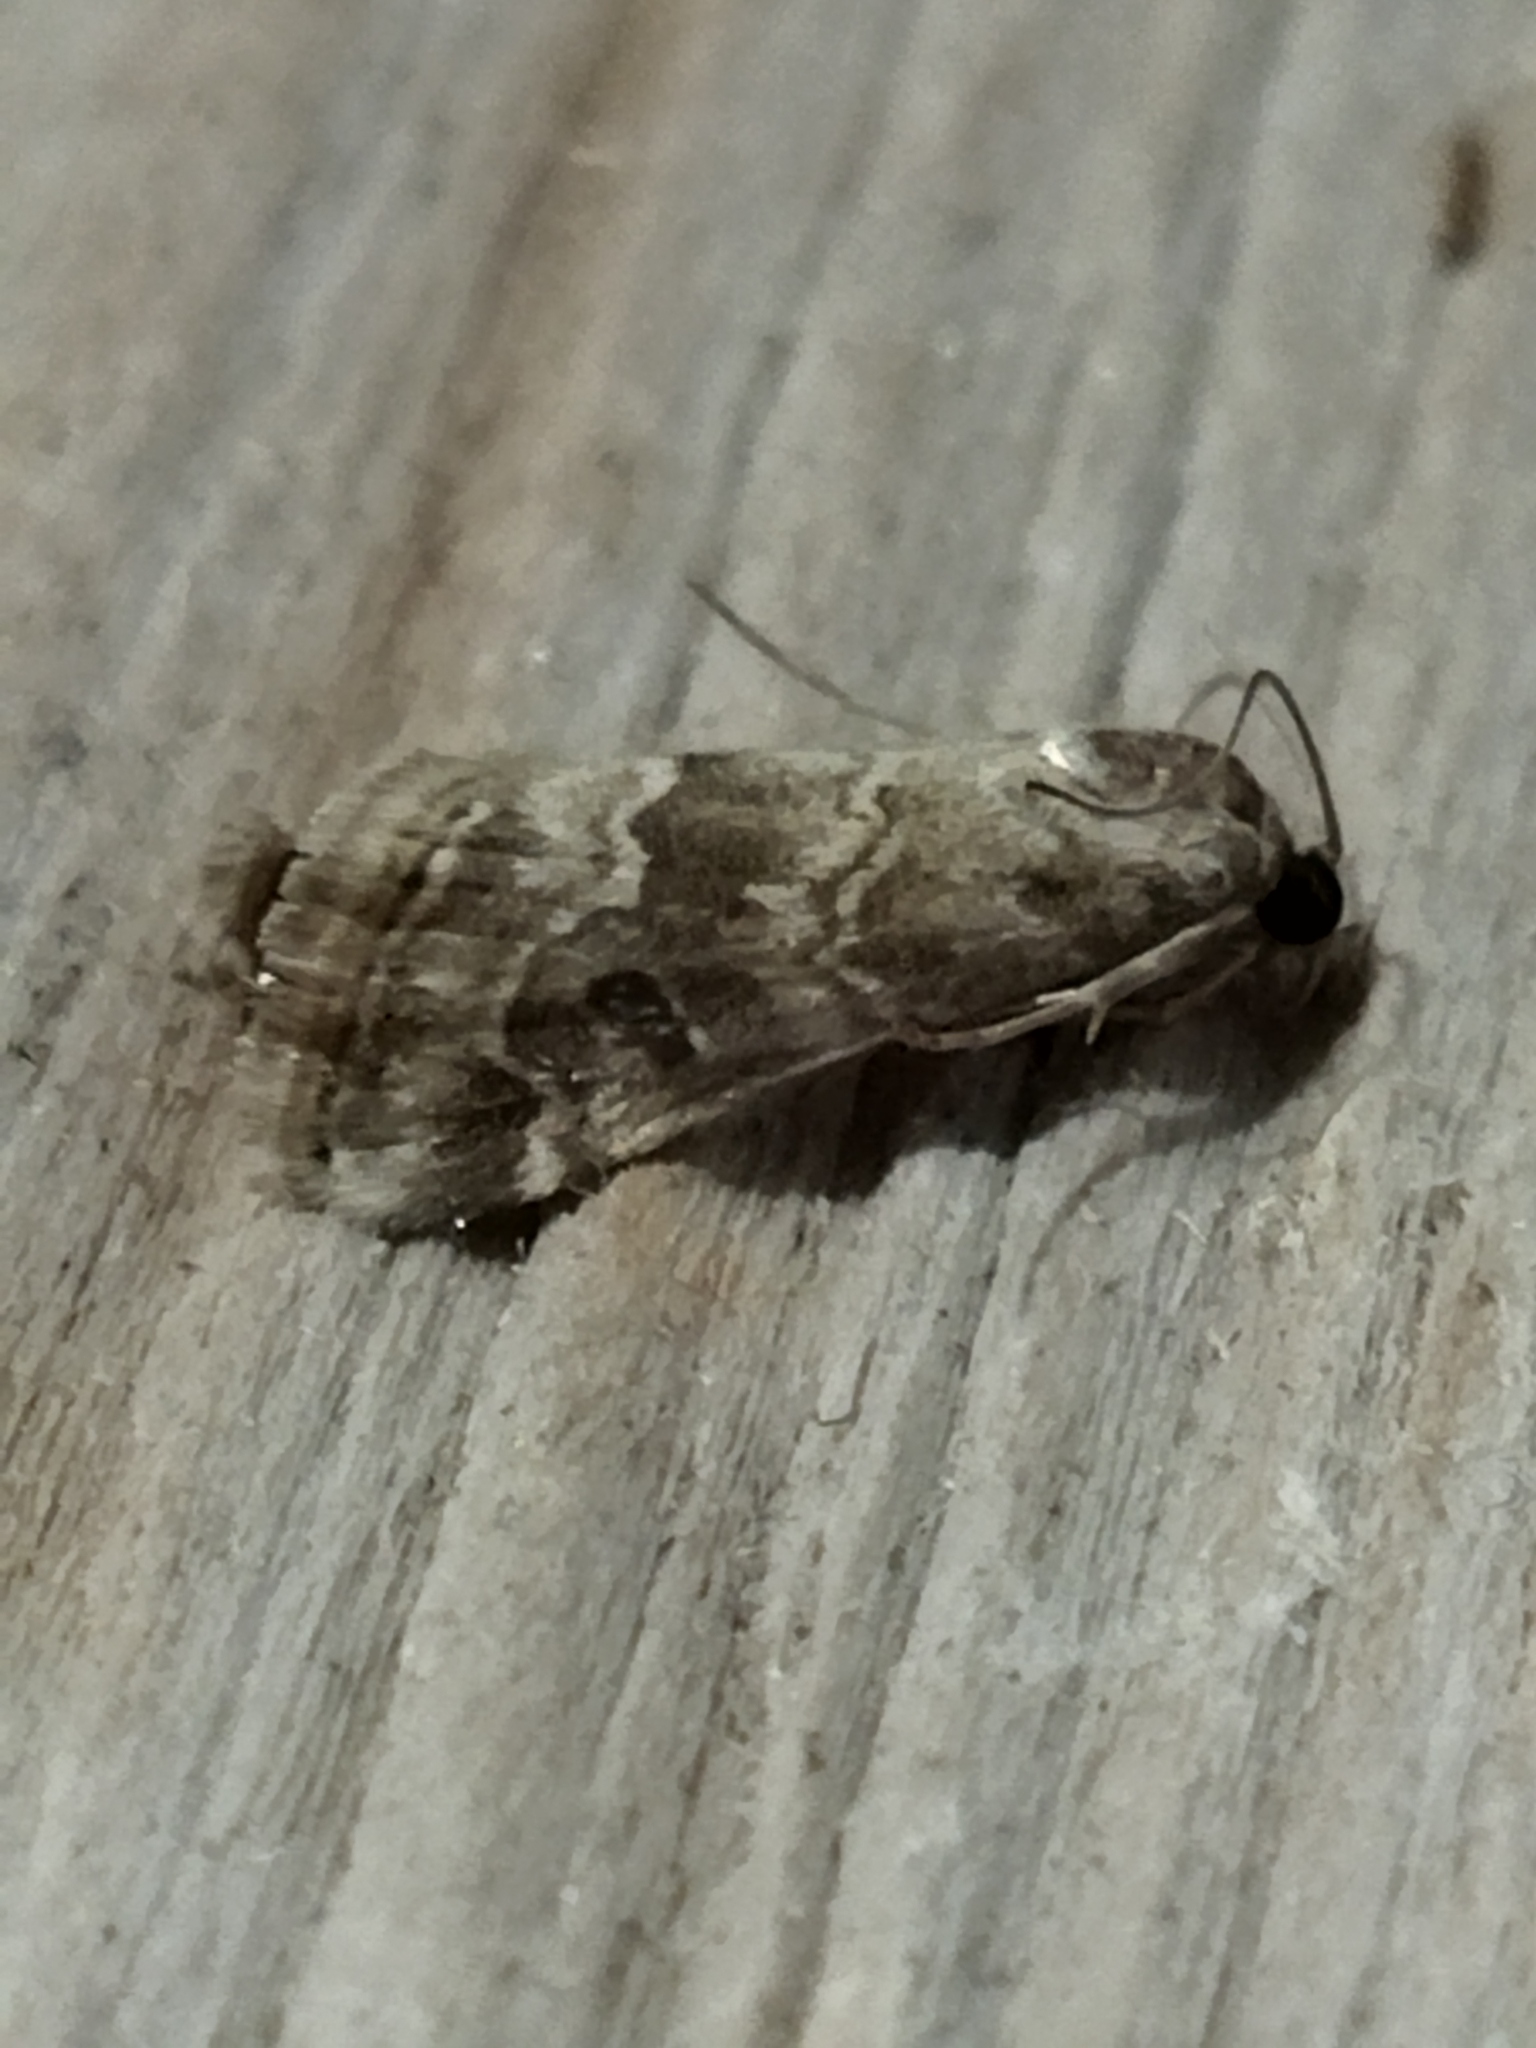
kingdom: Animalia
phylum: Arthropoda
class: Insecta
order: Lepidoptera
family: Crambidae
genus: Hellula
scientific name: Hellula undalis
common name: Cabbage webworm
